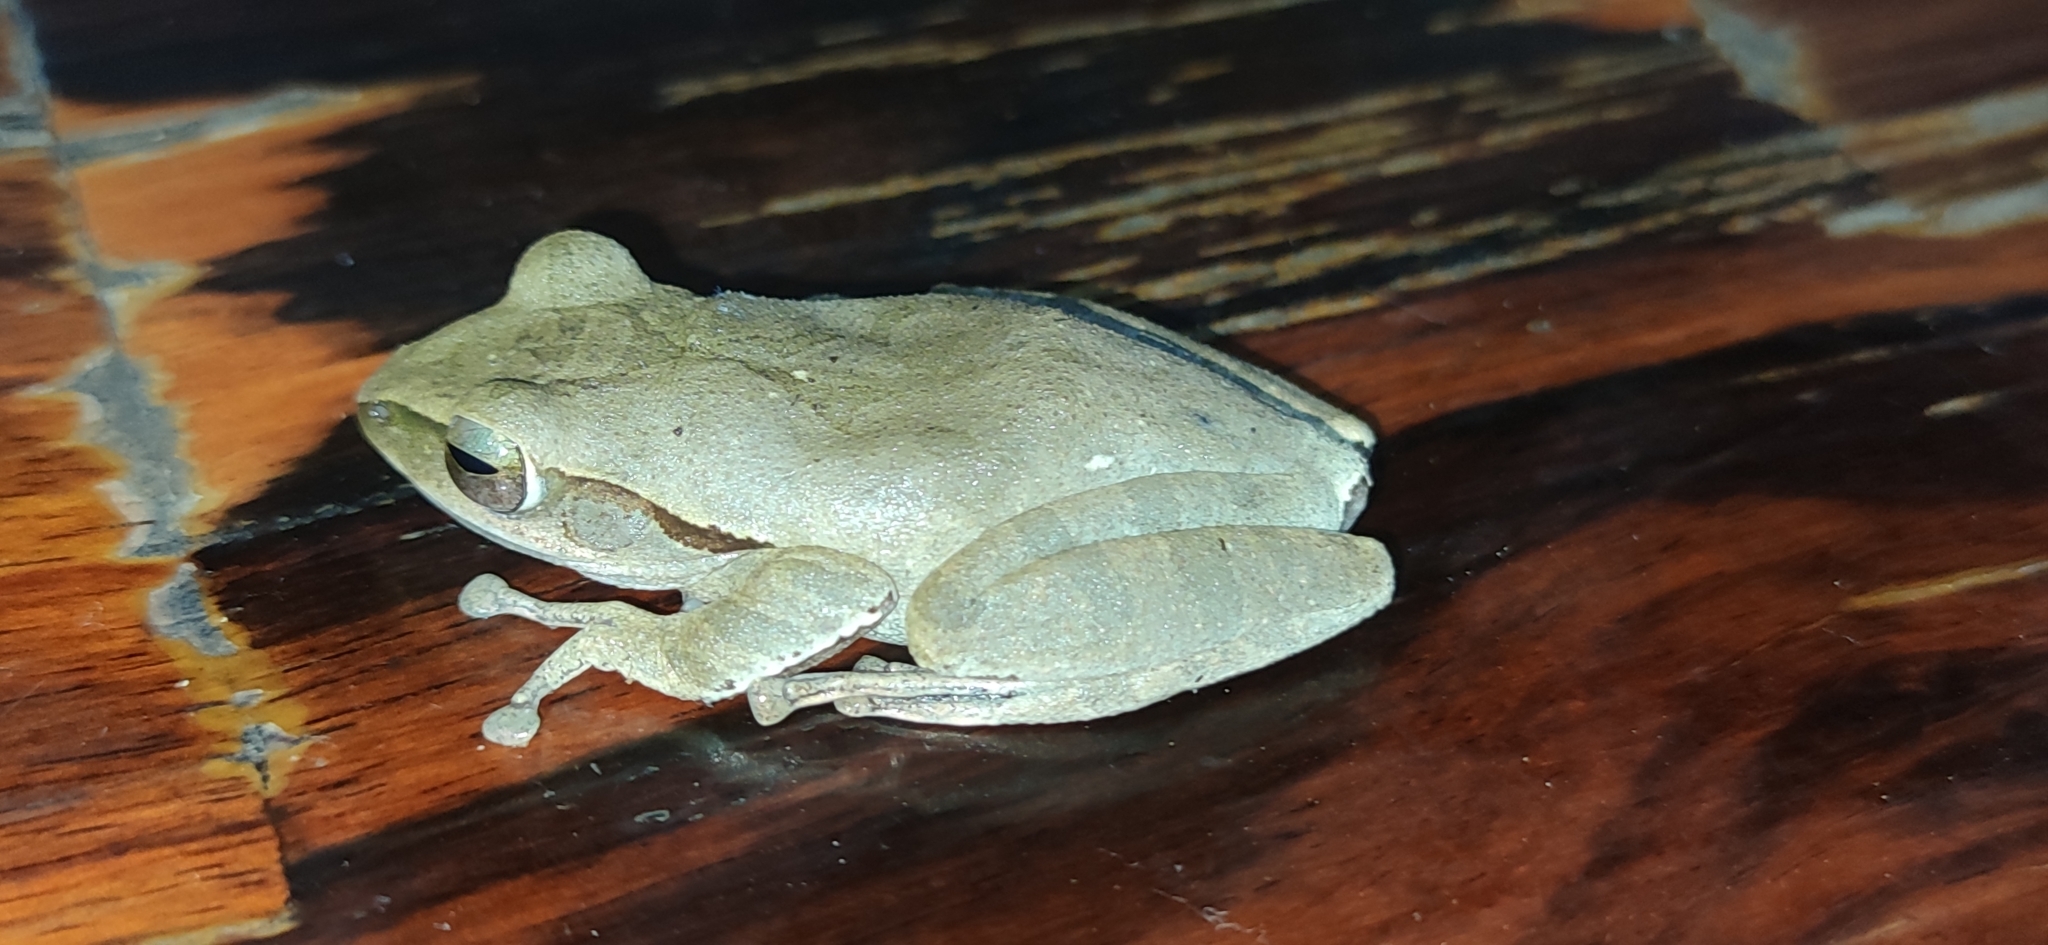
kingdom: Animalia
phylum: Chordata
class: Amphibia
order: Anura
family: Rhacophoridae
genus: Polypedates
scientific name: Polypedates megacephalus
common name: Hong kong whipping frog
